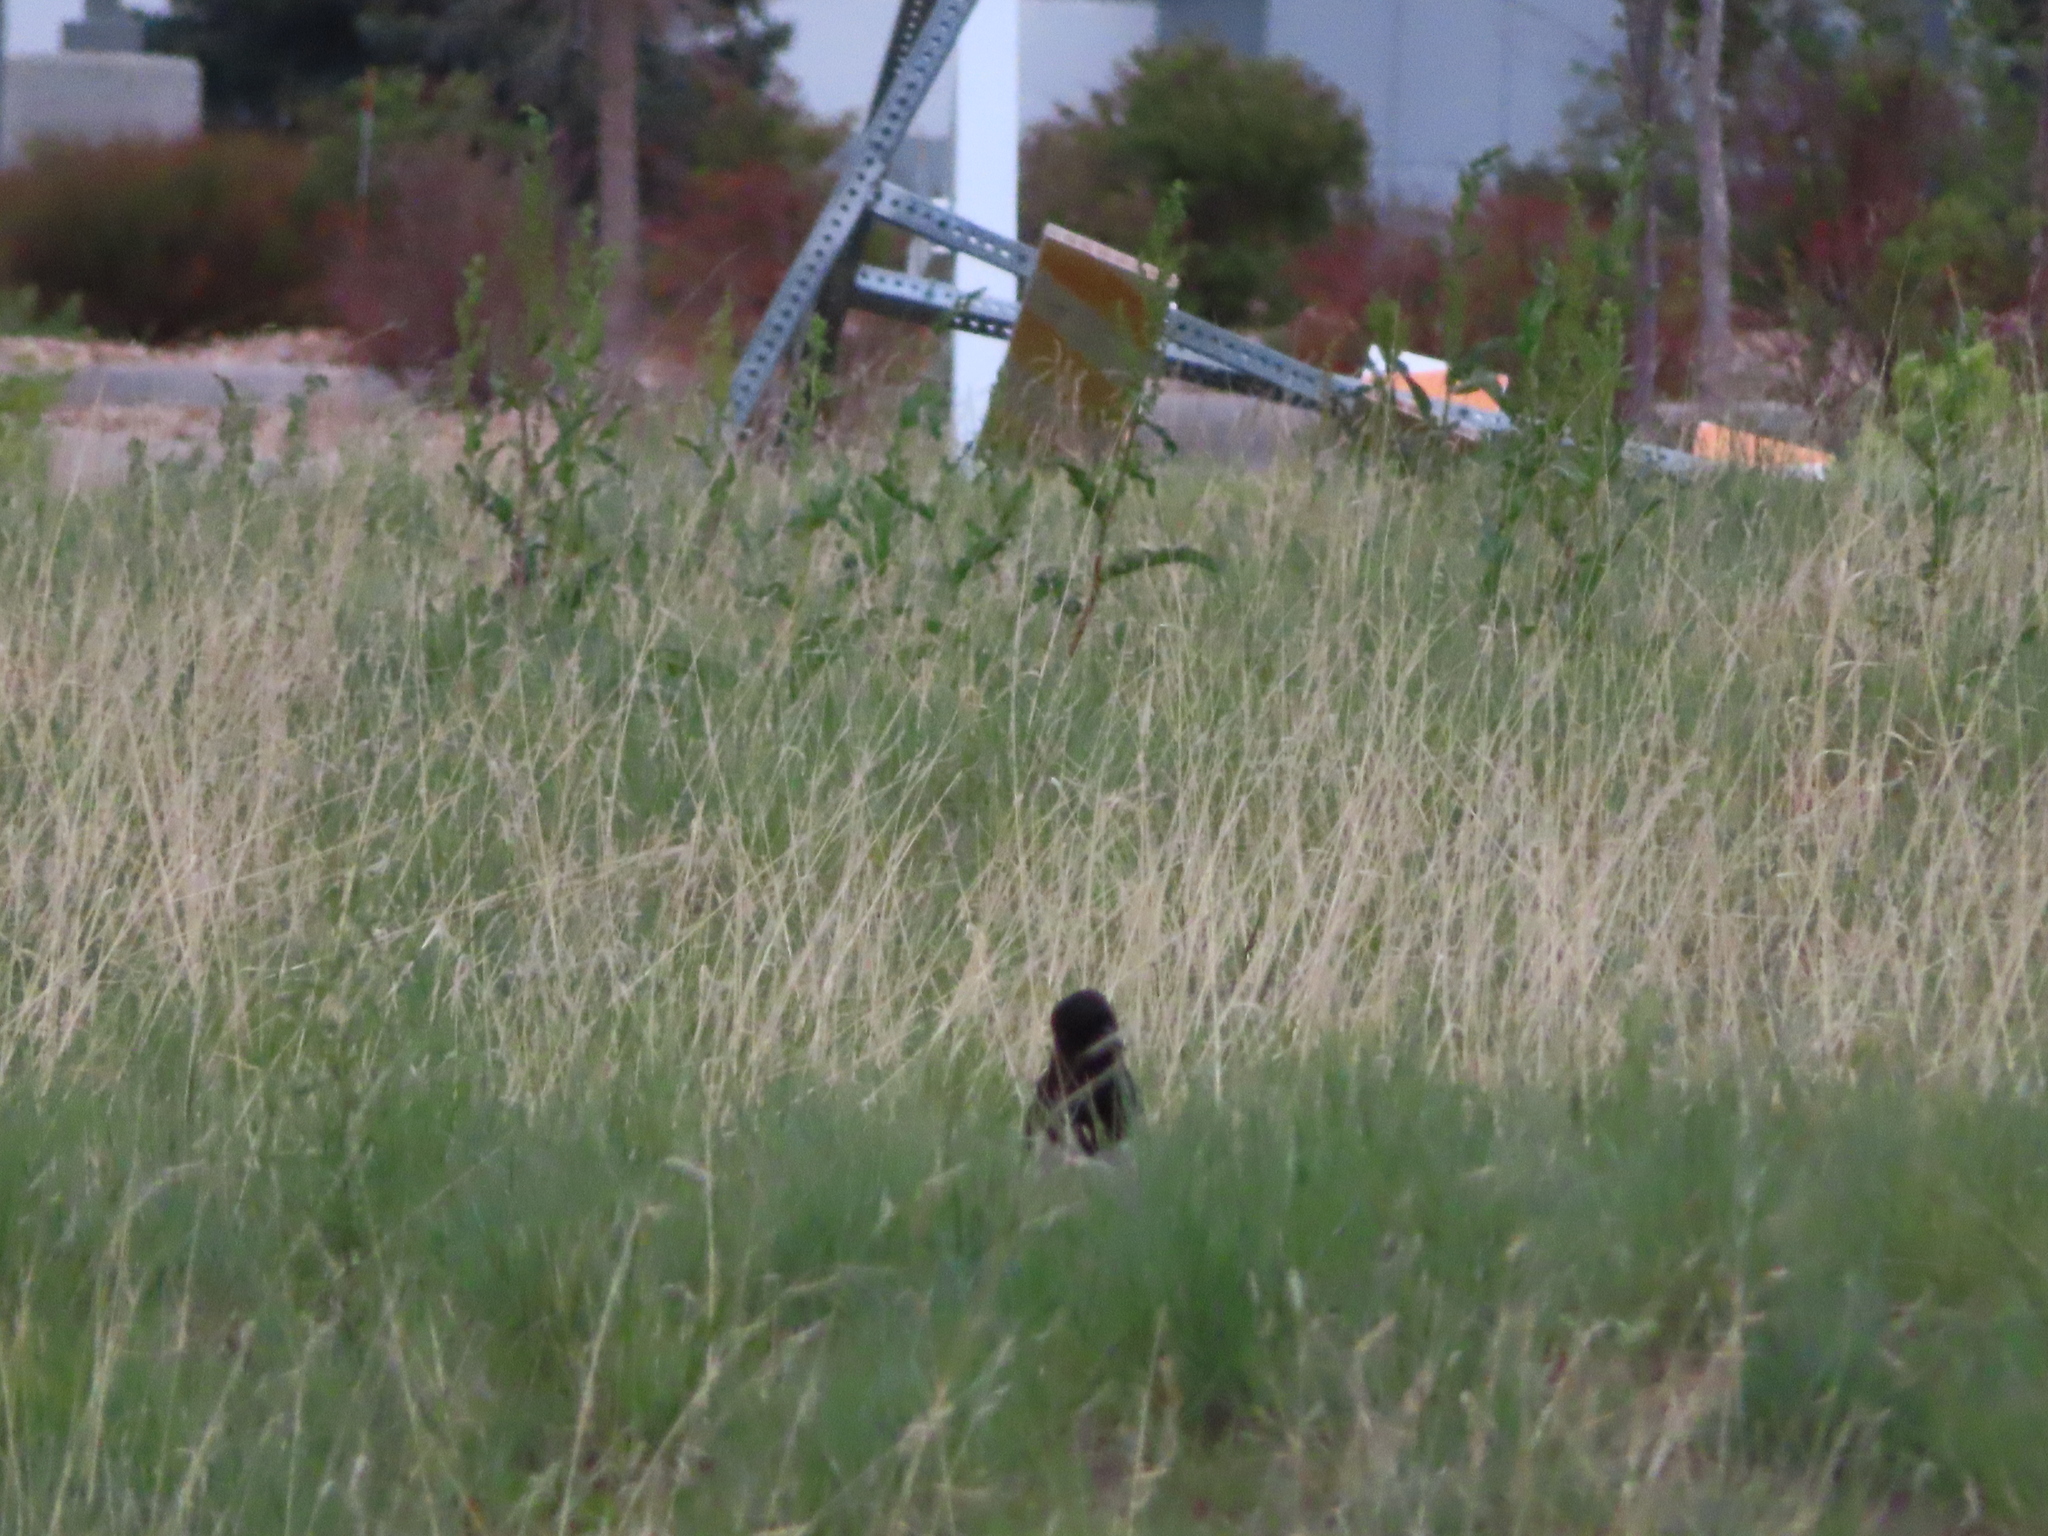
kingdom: Animalia
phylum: Chordata
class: Aves
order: Passeriformes
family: Corvidae
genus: Pica
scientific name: Pica hudsonia
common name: Black-billed magpie
